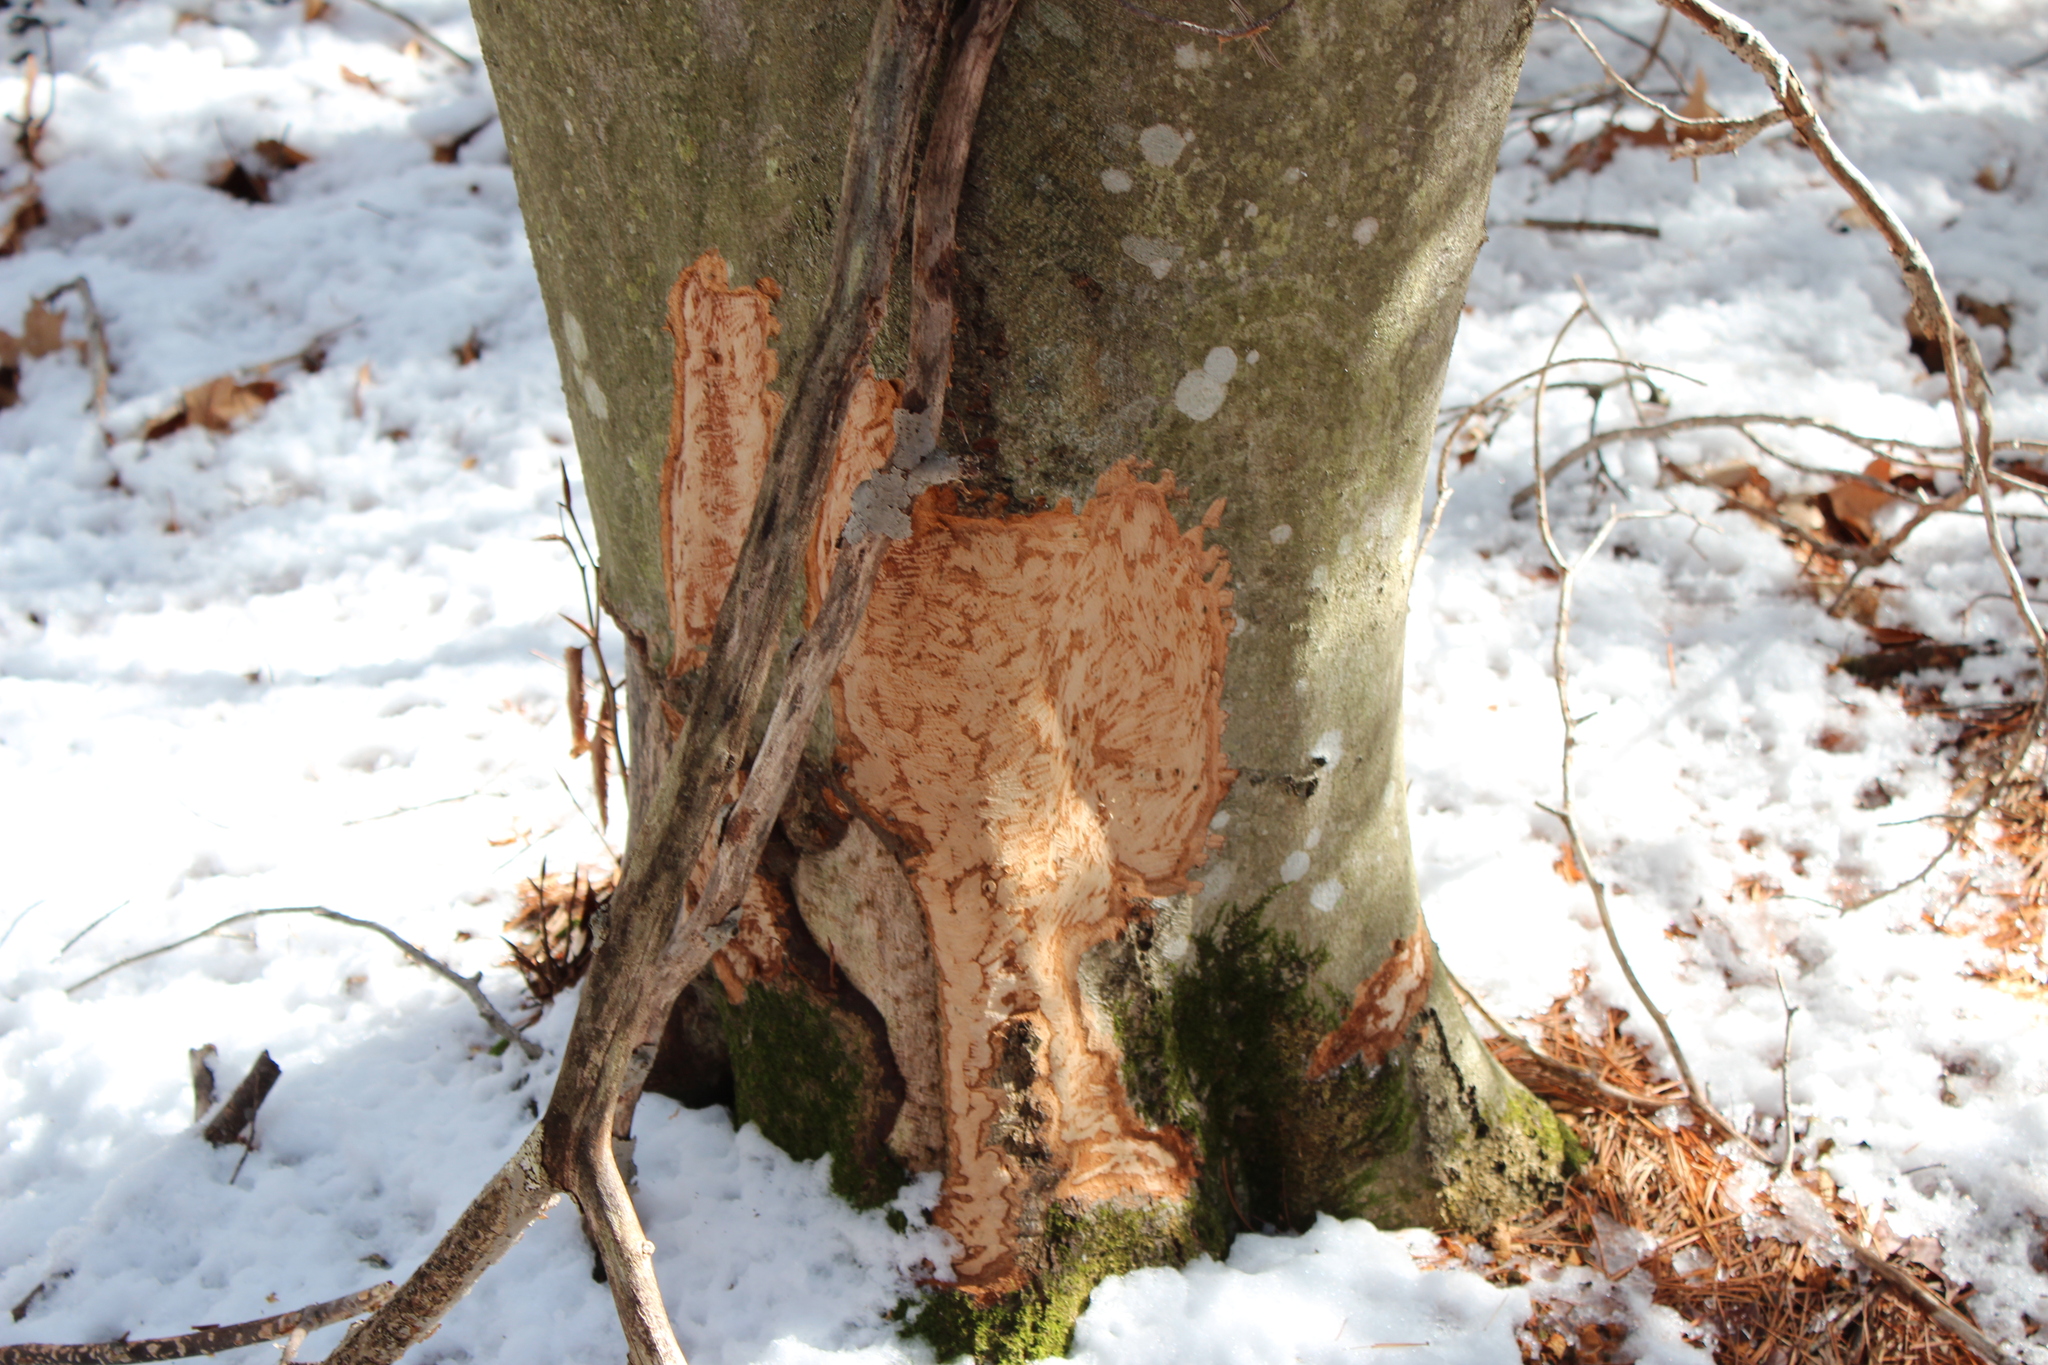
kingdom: Animalia
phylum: Chordata
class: Mammalia
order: Rodentia
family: Erethizontidae
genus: Erethizon
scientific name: Erethizon dorsatus
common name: North american porcupine
